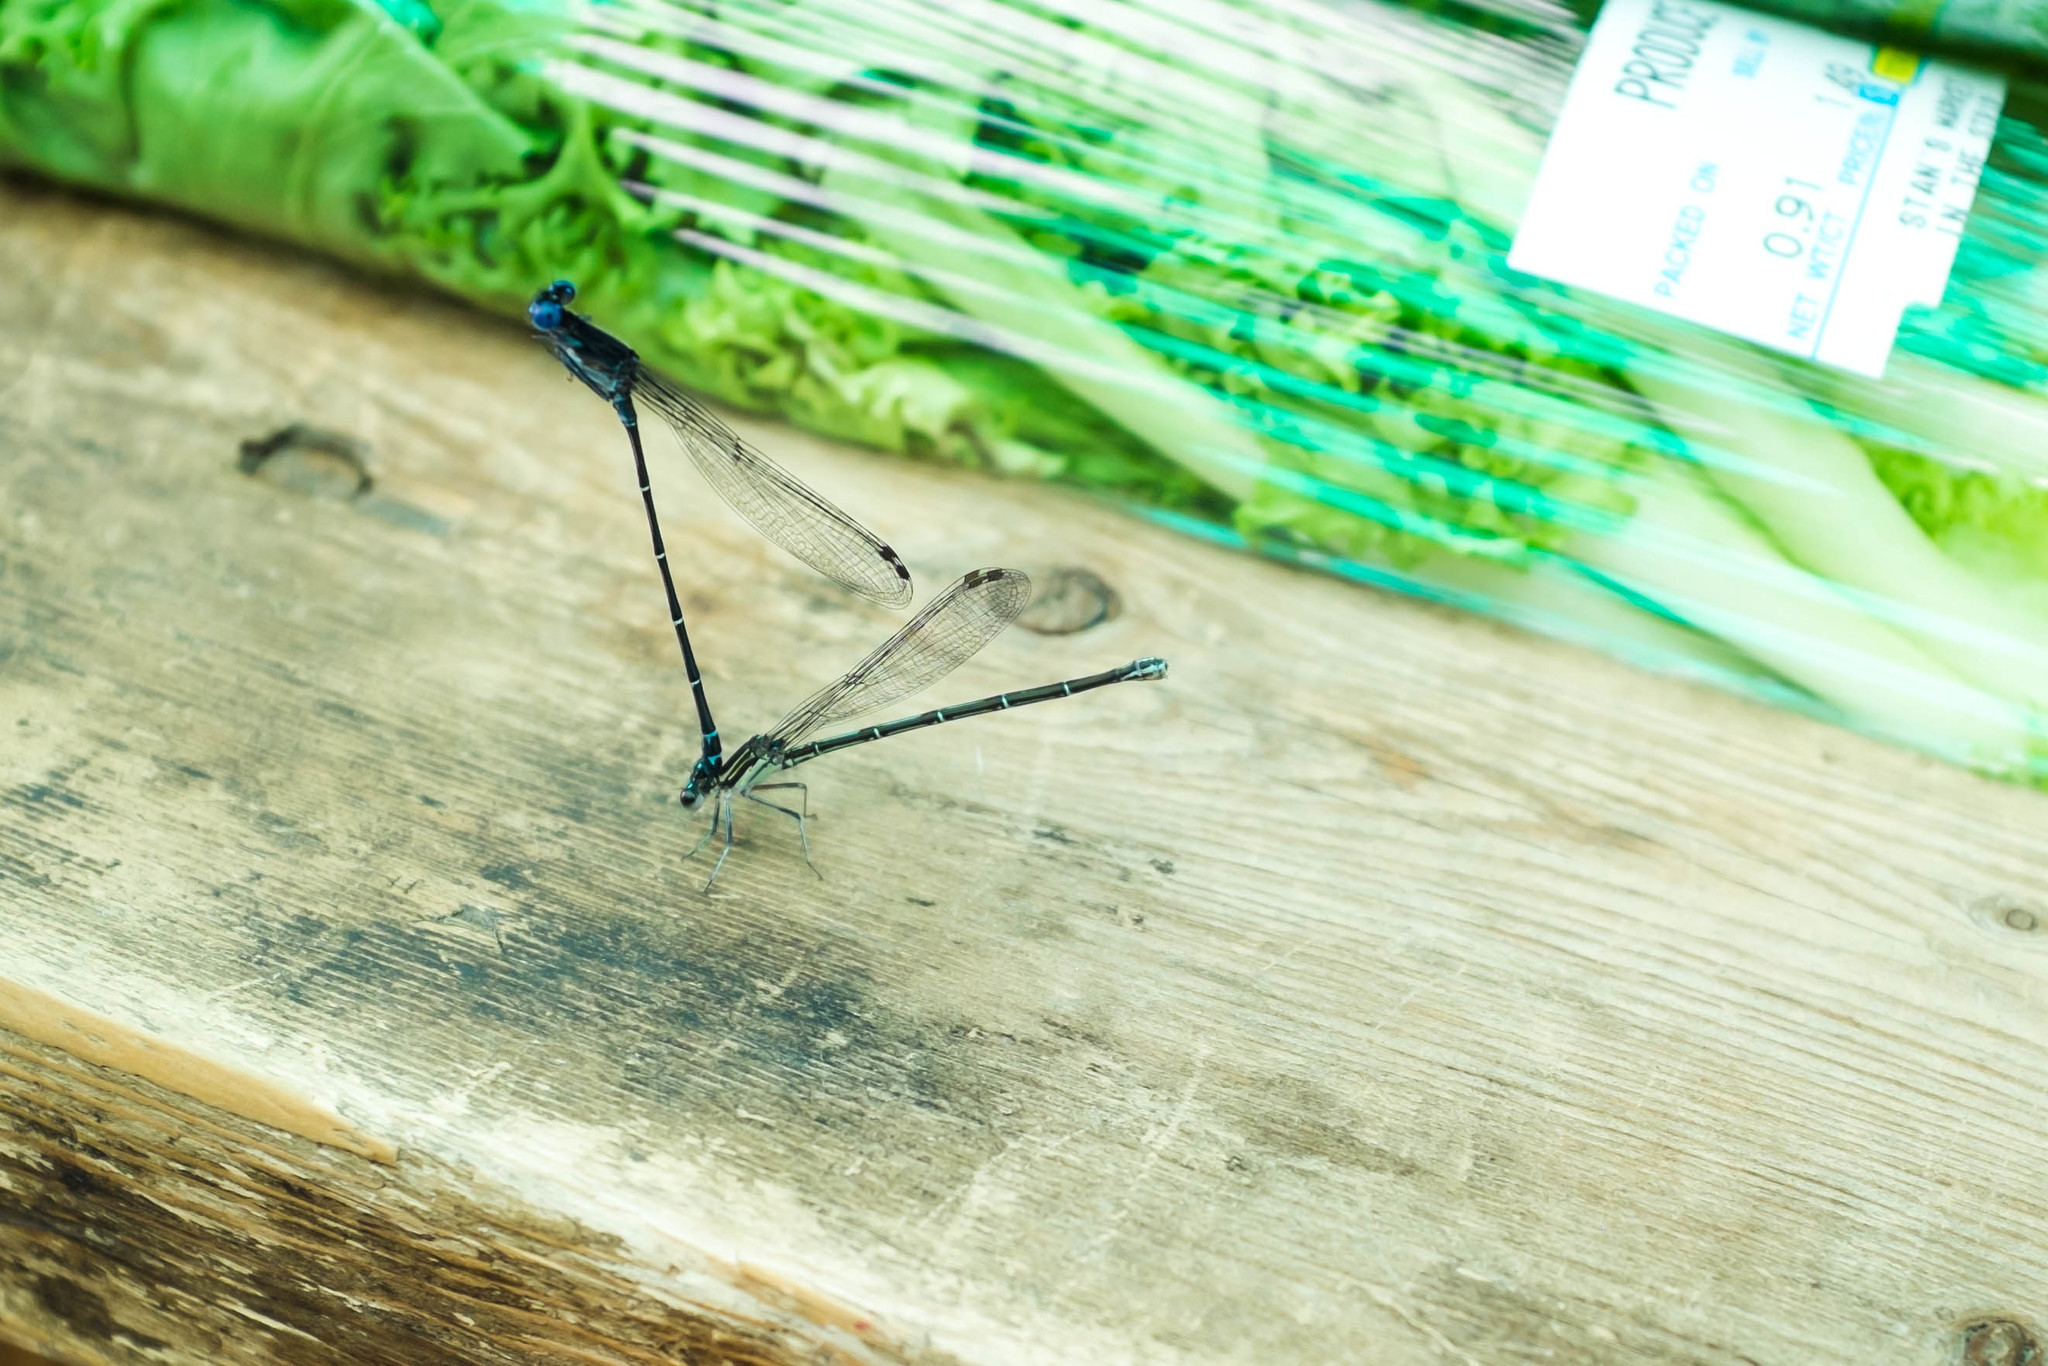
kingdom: Animalia
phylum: Arthropoda
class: Insecta
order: Odonata
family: Coenagrionidae
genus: Argia
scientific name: Argia translata
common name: Dusky dancer
